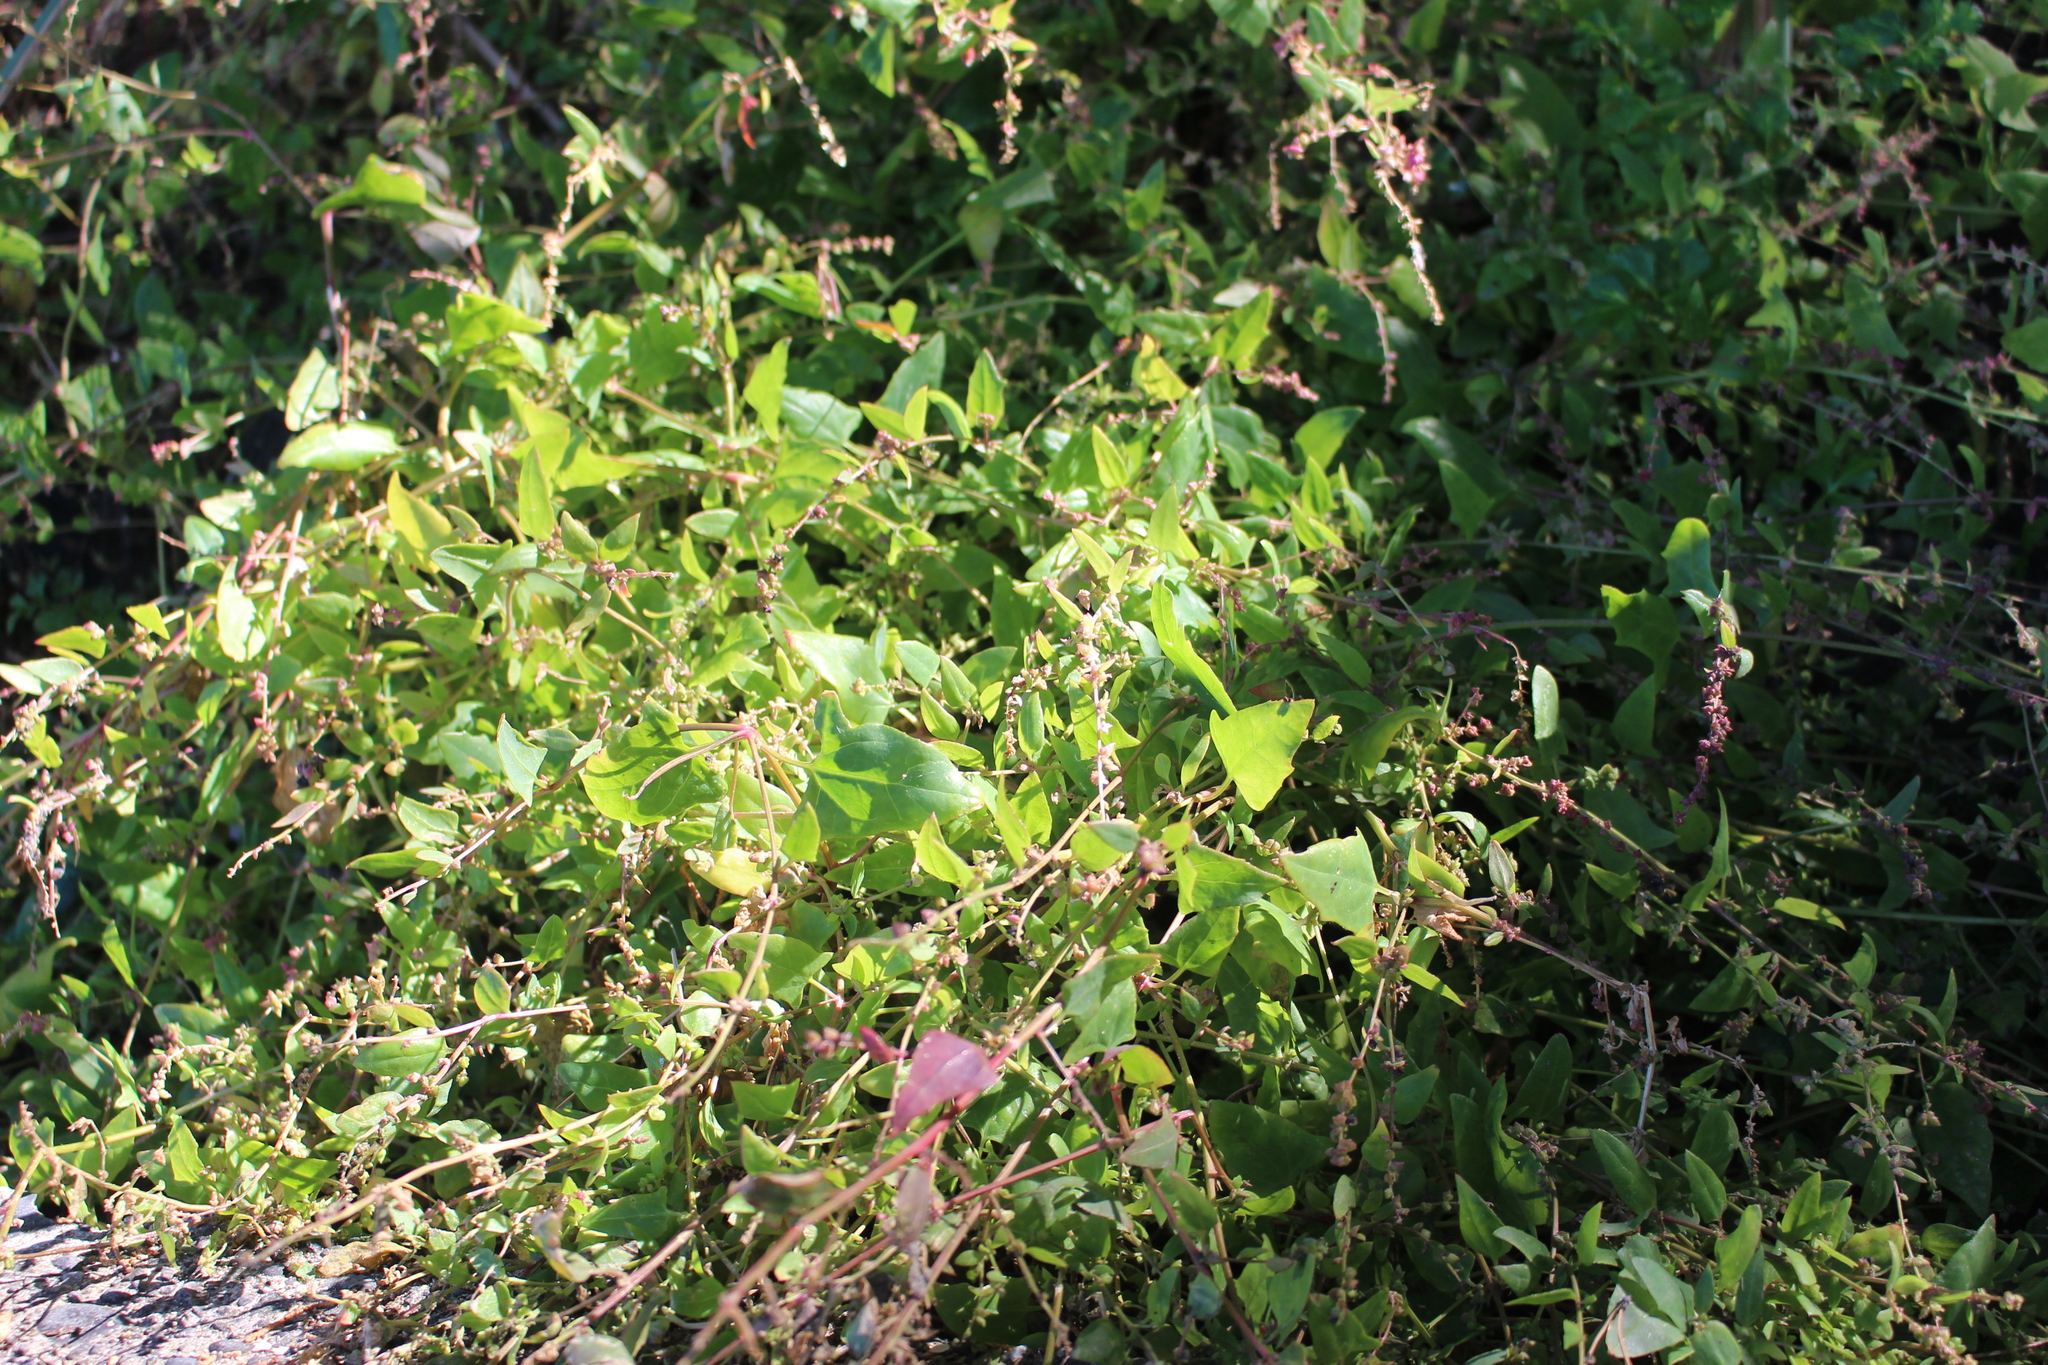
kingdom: Plantae
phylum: Tracheophyta
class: Magnoliopsida
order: Caryophyllales
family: Amaranthaceae
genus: Atriplex
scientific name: Atriplex prostrata
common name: Spear-leaved orache
